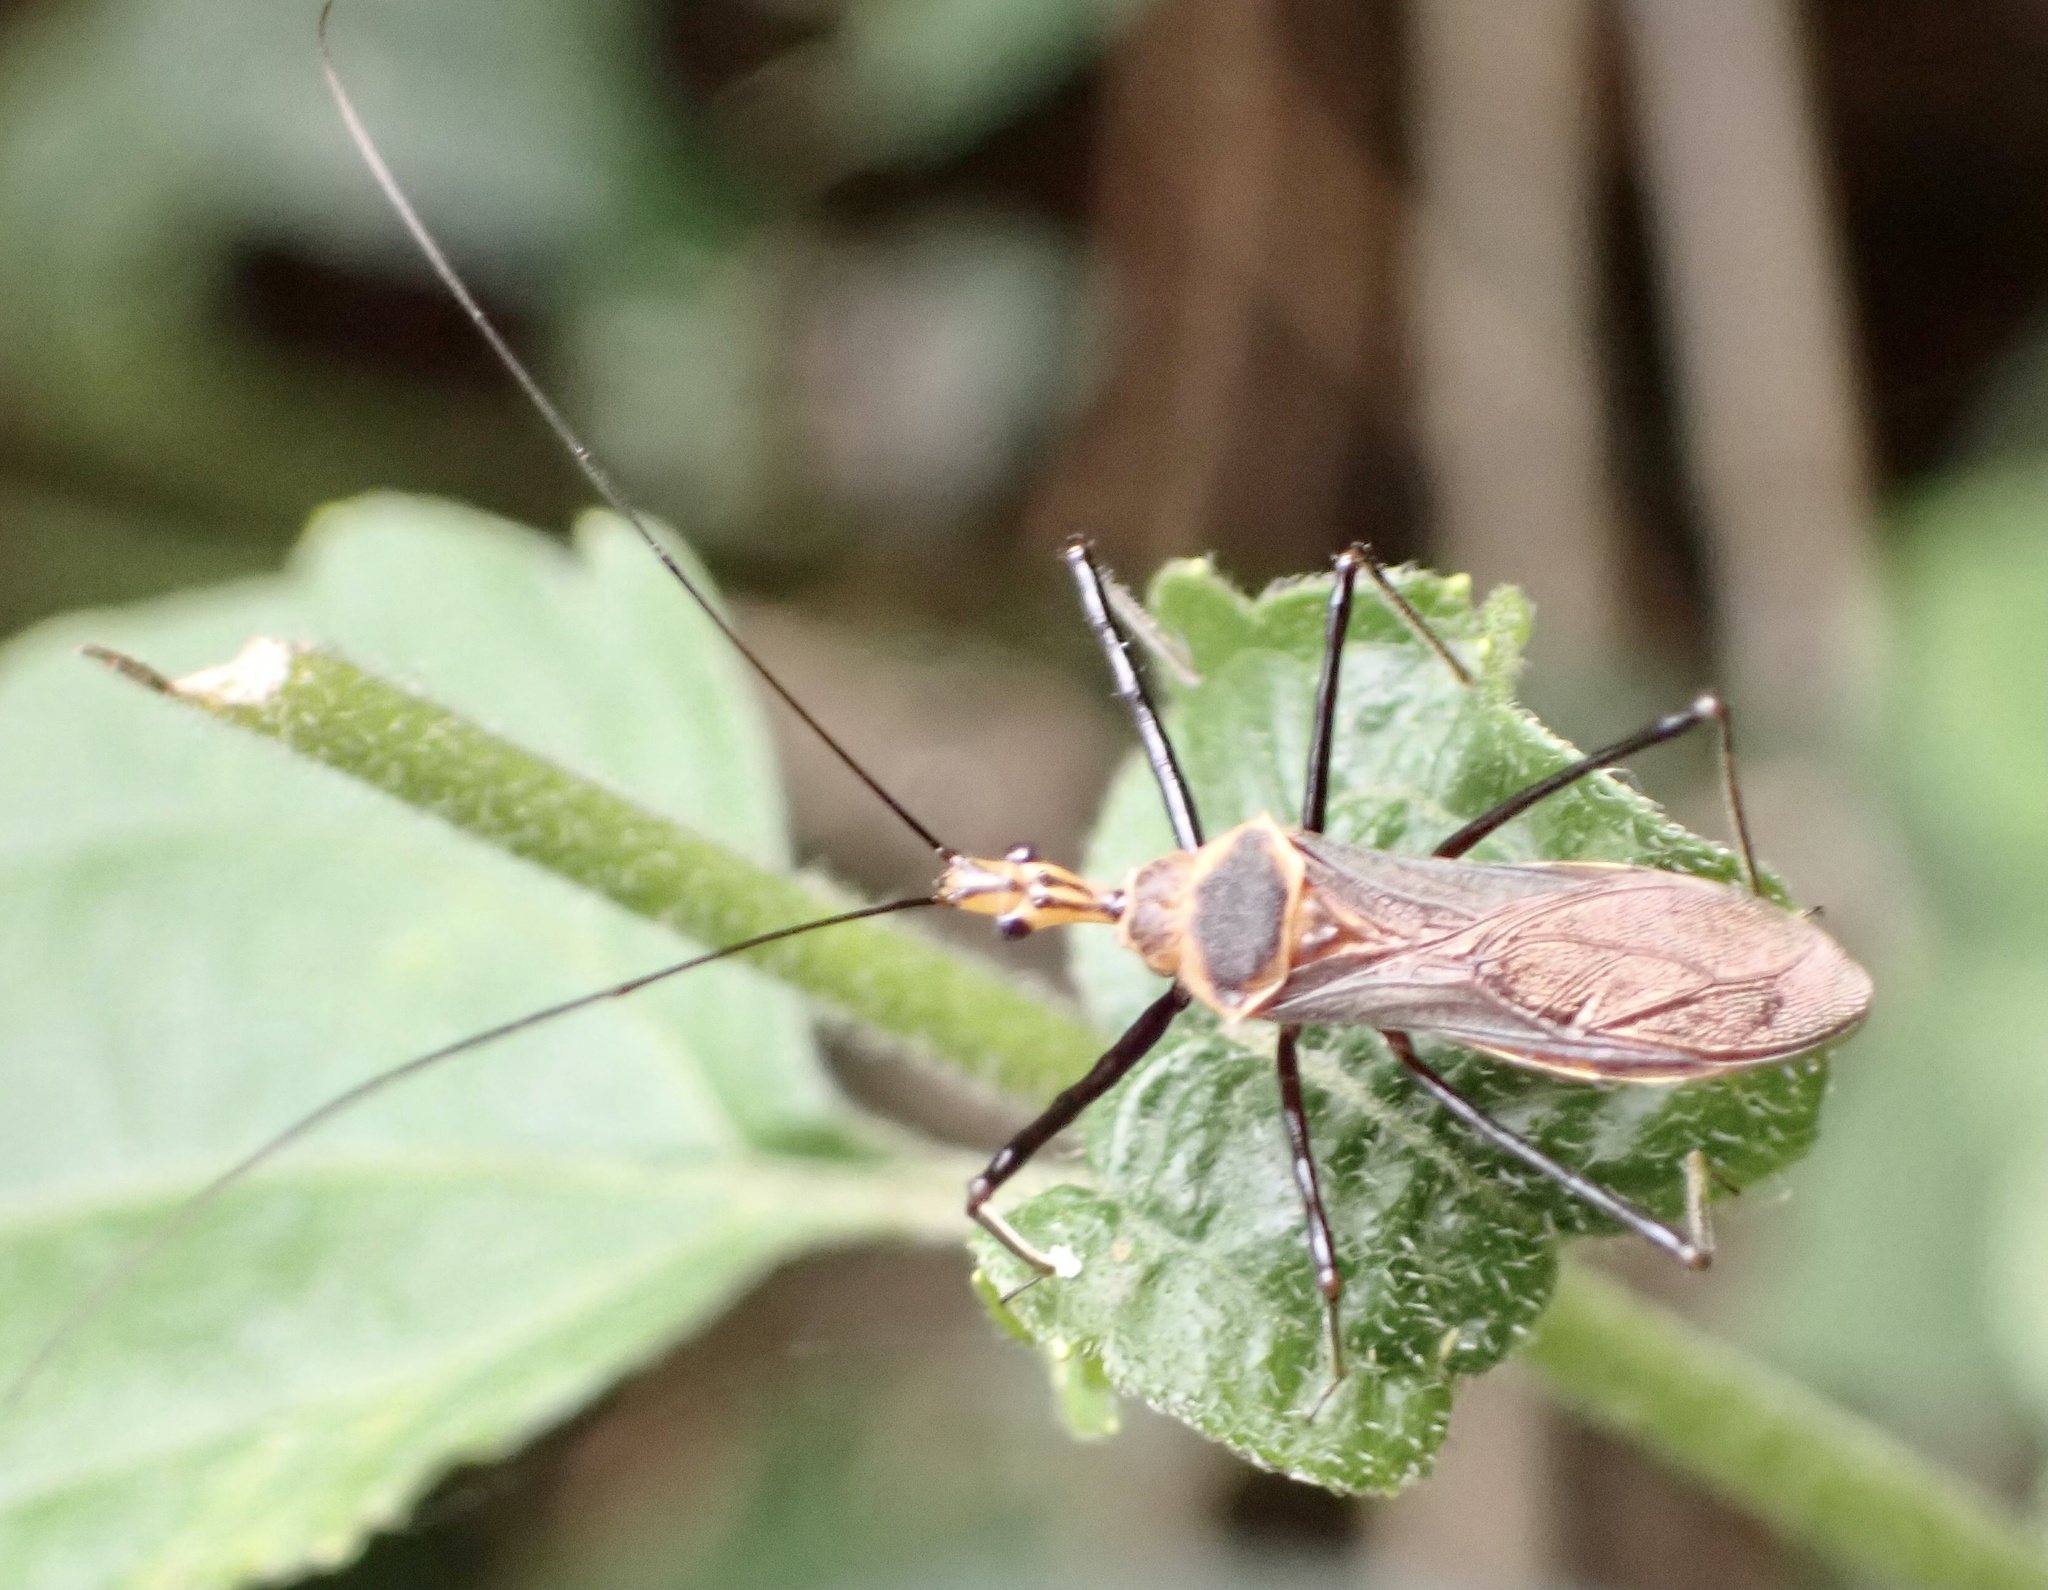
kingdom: Animalia
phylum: Arthropoda
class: Insecta
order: Hemiptera
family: Reduviidae
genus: Vestula
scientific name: Vestula lineaticeps
